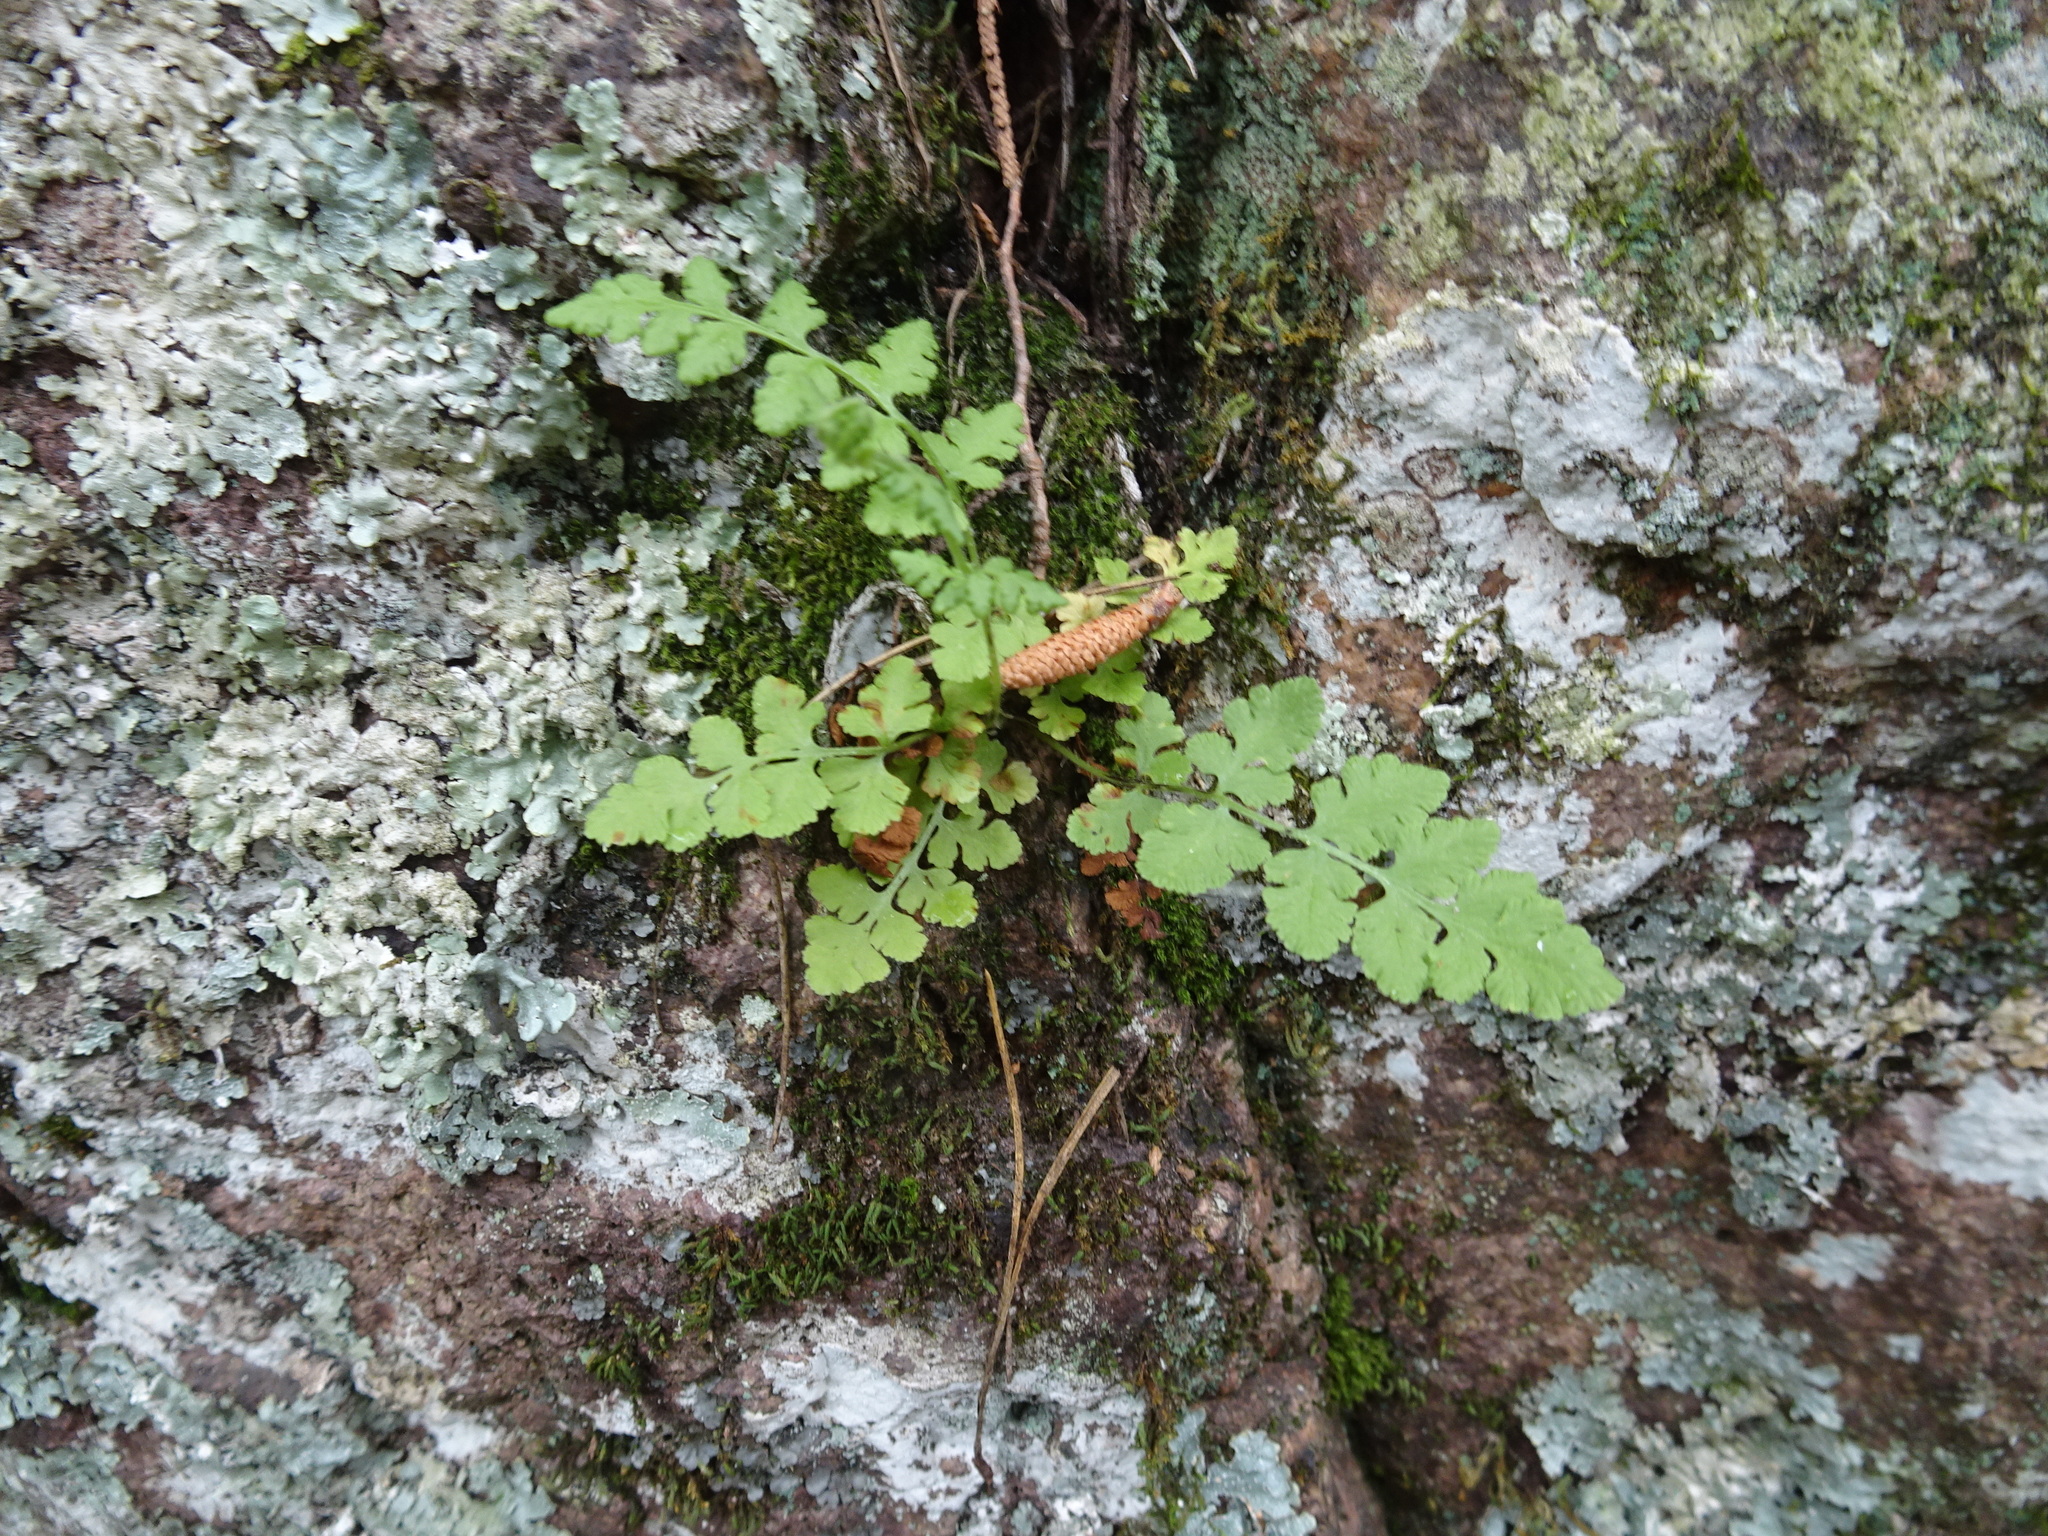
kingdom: Plantae
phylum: Tracheophyta
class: Polypodiopsida
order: Polypodiales
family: Woodsiaceae
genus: Physematium
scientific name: Physematium obtusum
